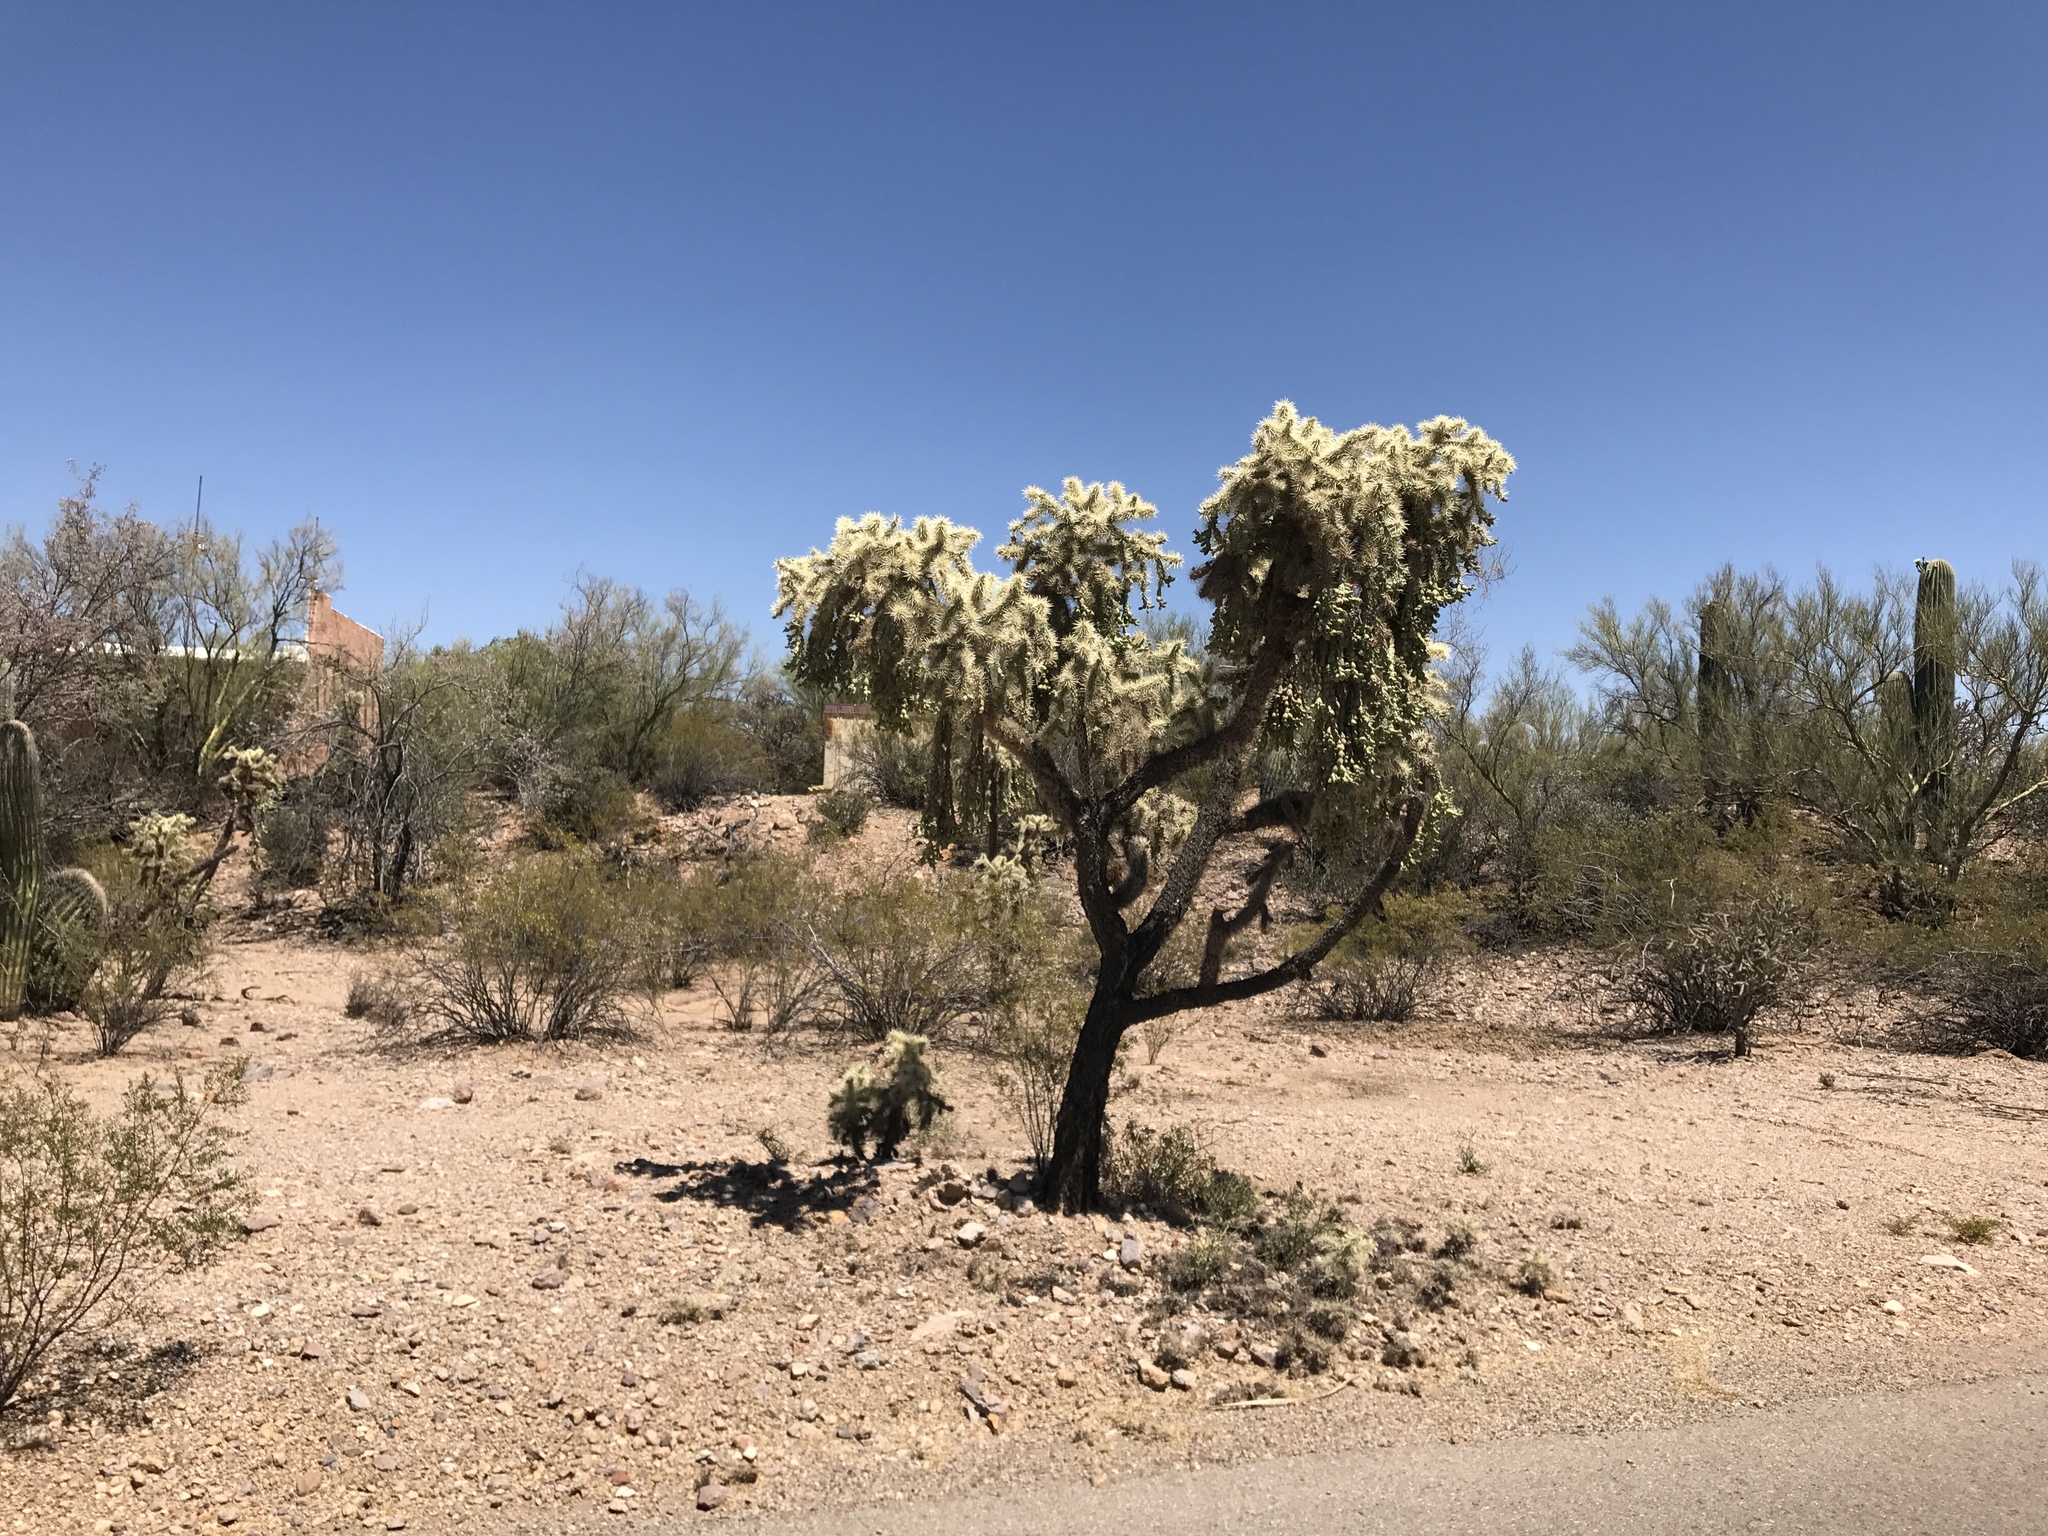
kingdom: Plantae
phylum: Tracheophyta
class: Magnoliopsida
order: Caryophyllales
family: Cactaceae
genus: Cylindropuntia
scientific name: Cylindropuntia fulgida
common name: Jumping cholla
